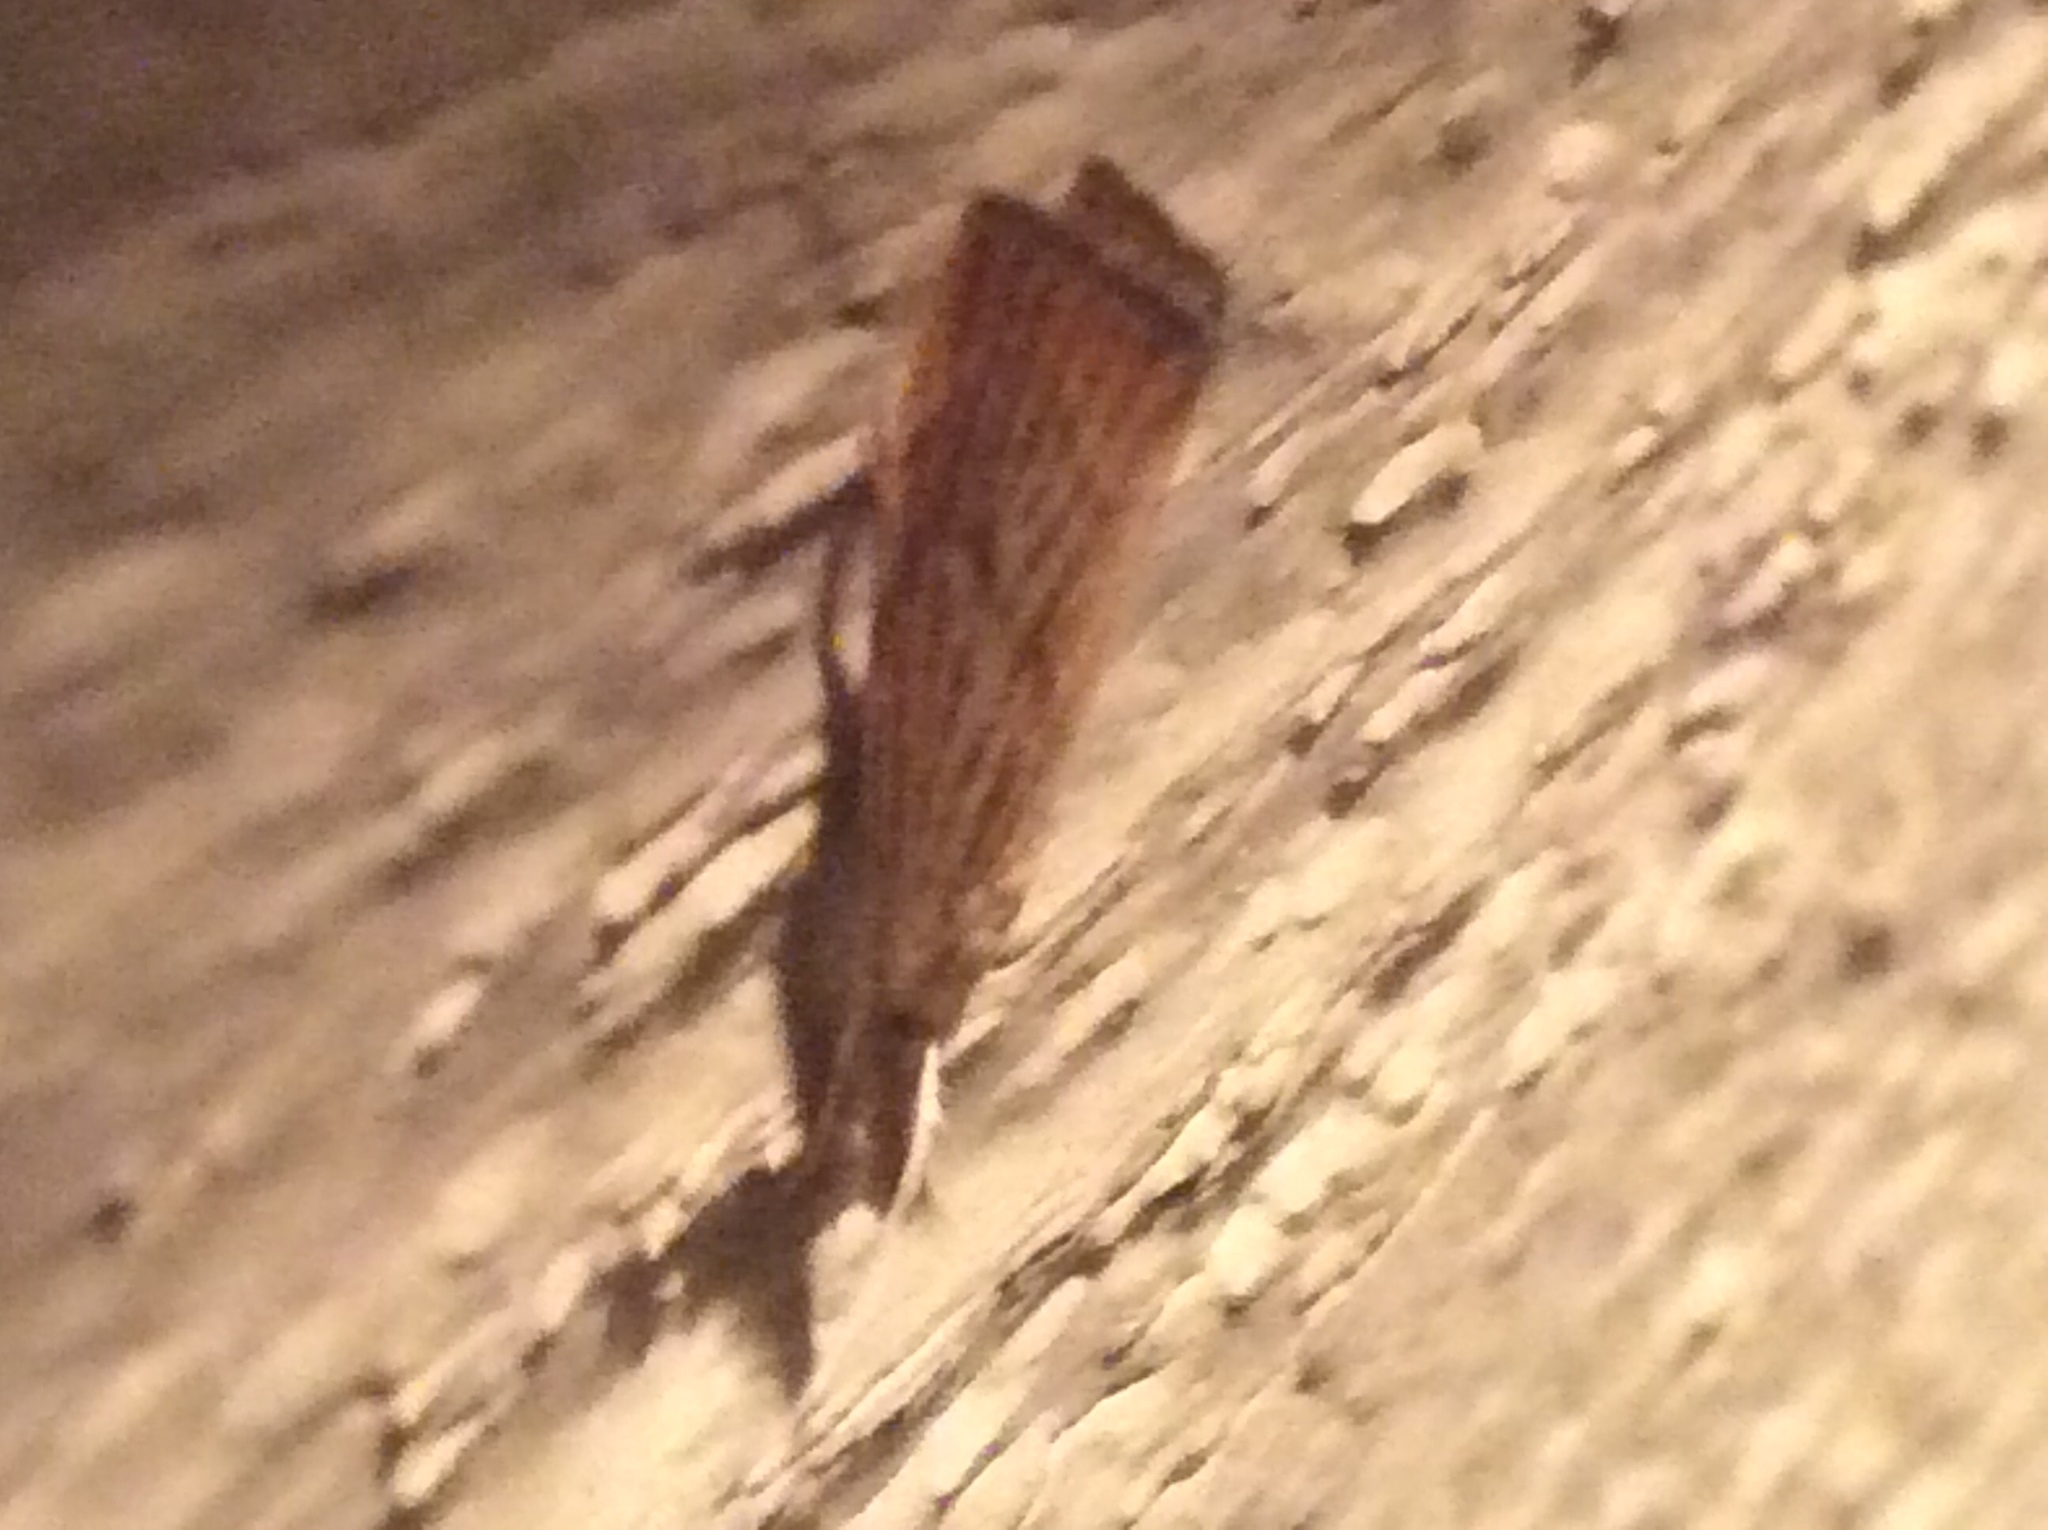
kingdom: Animalia
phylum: Arthropoda
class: Insecta
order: Lepidoptera
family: Crambidae
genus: Agriphila
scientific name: Agriphila ruricolellus
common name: Lesser vagabond sod webworm
